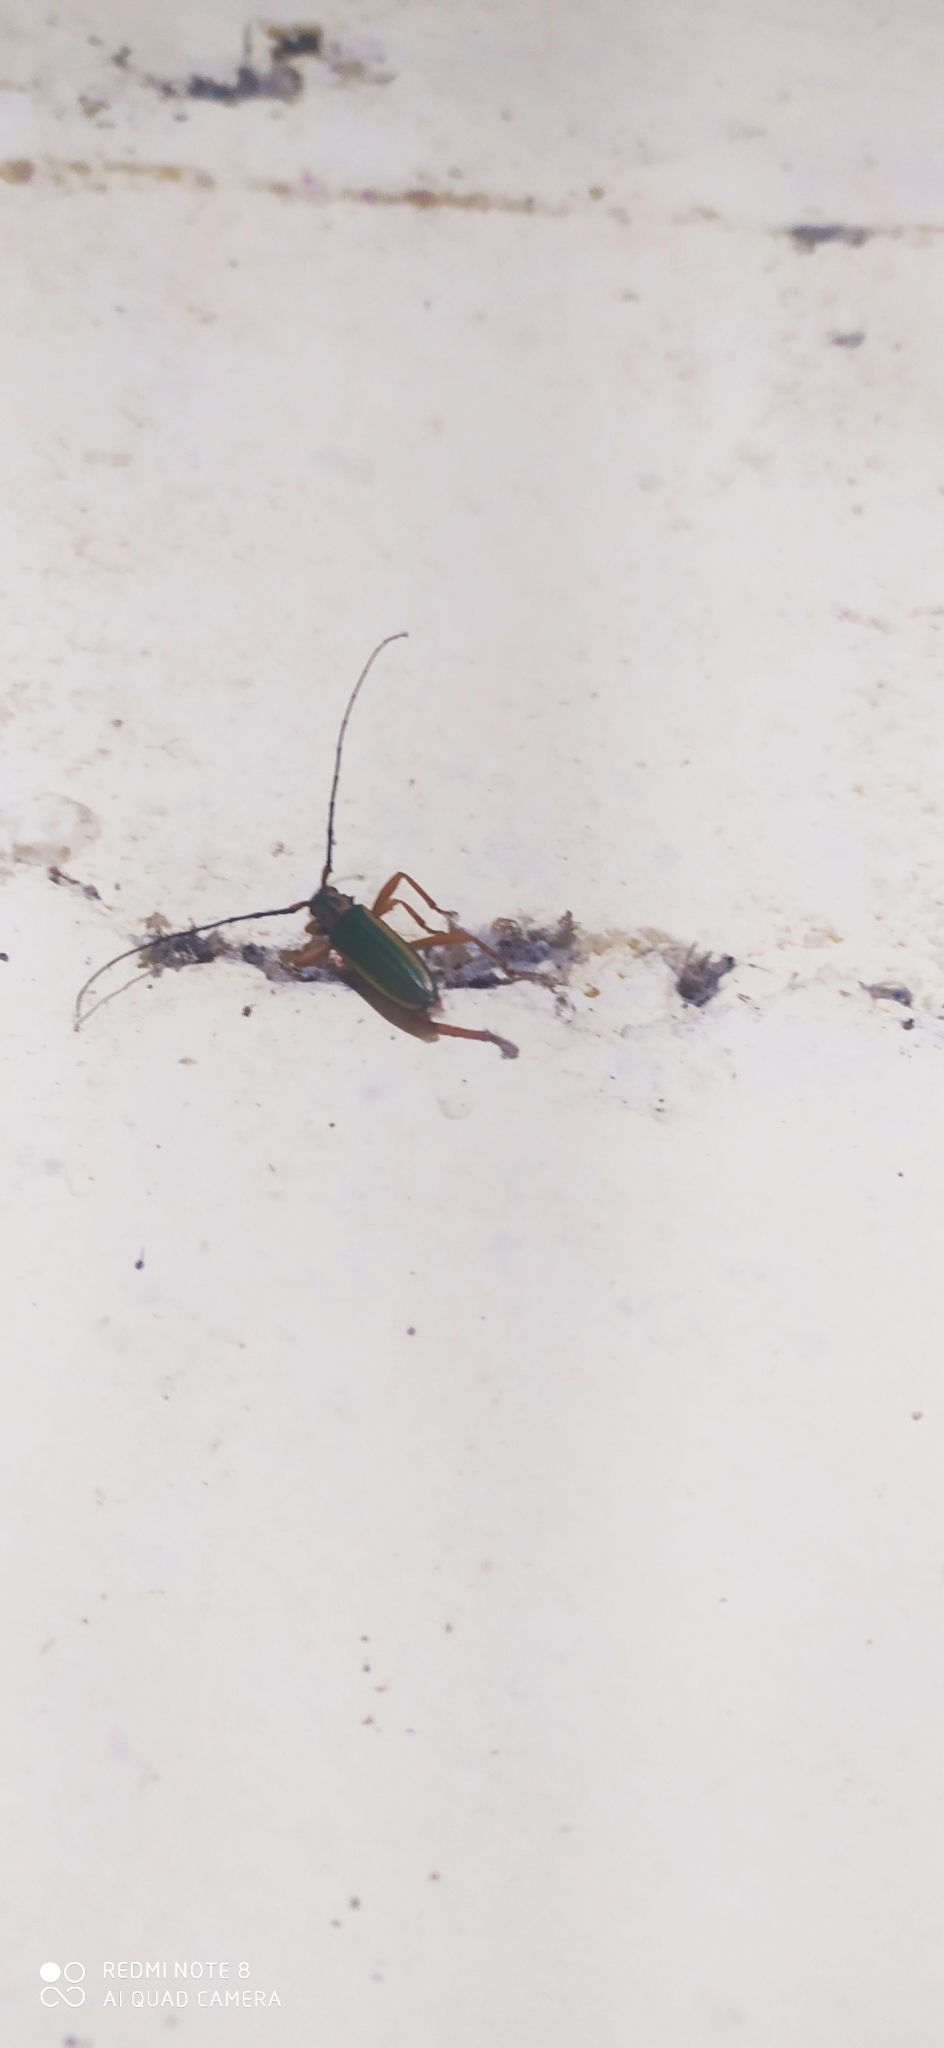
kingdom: Animalia
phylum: Arthropoda
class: Insecta
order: Coleoptera
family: Cerambycidae
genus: Chlorida
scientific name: Chlorida festiva
